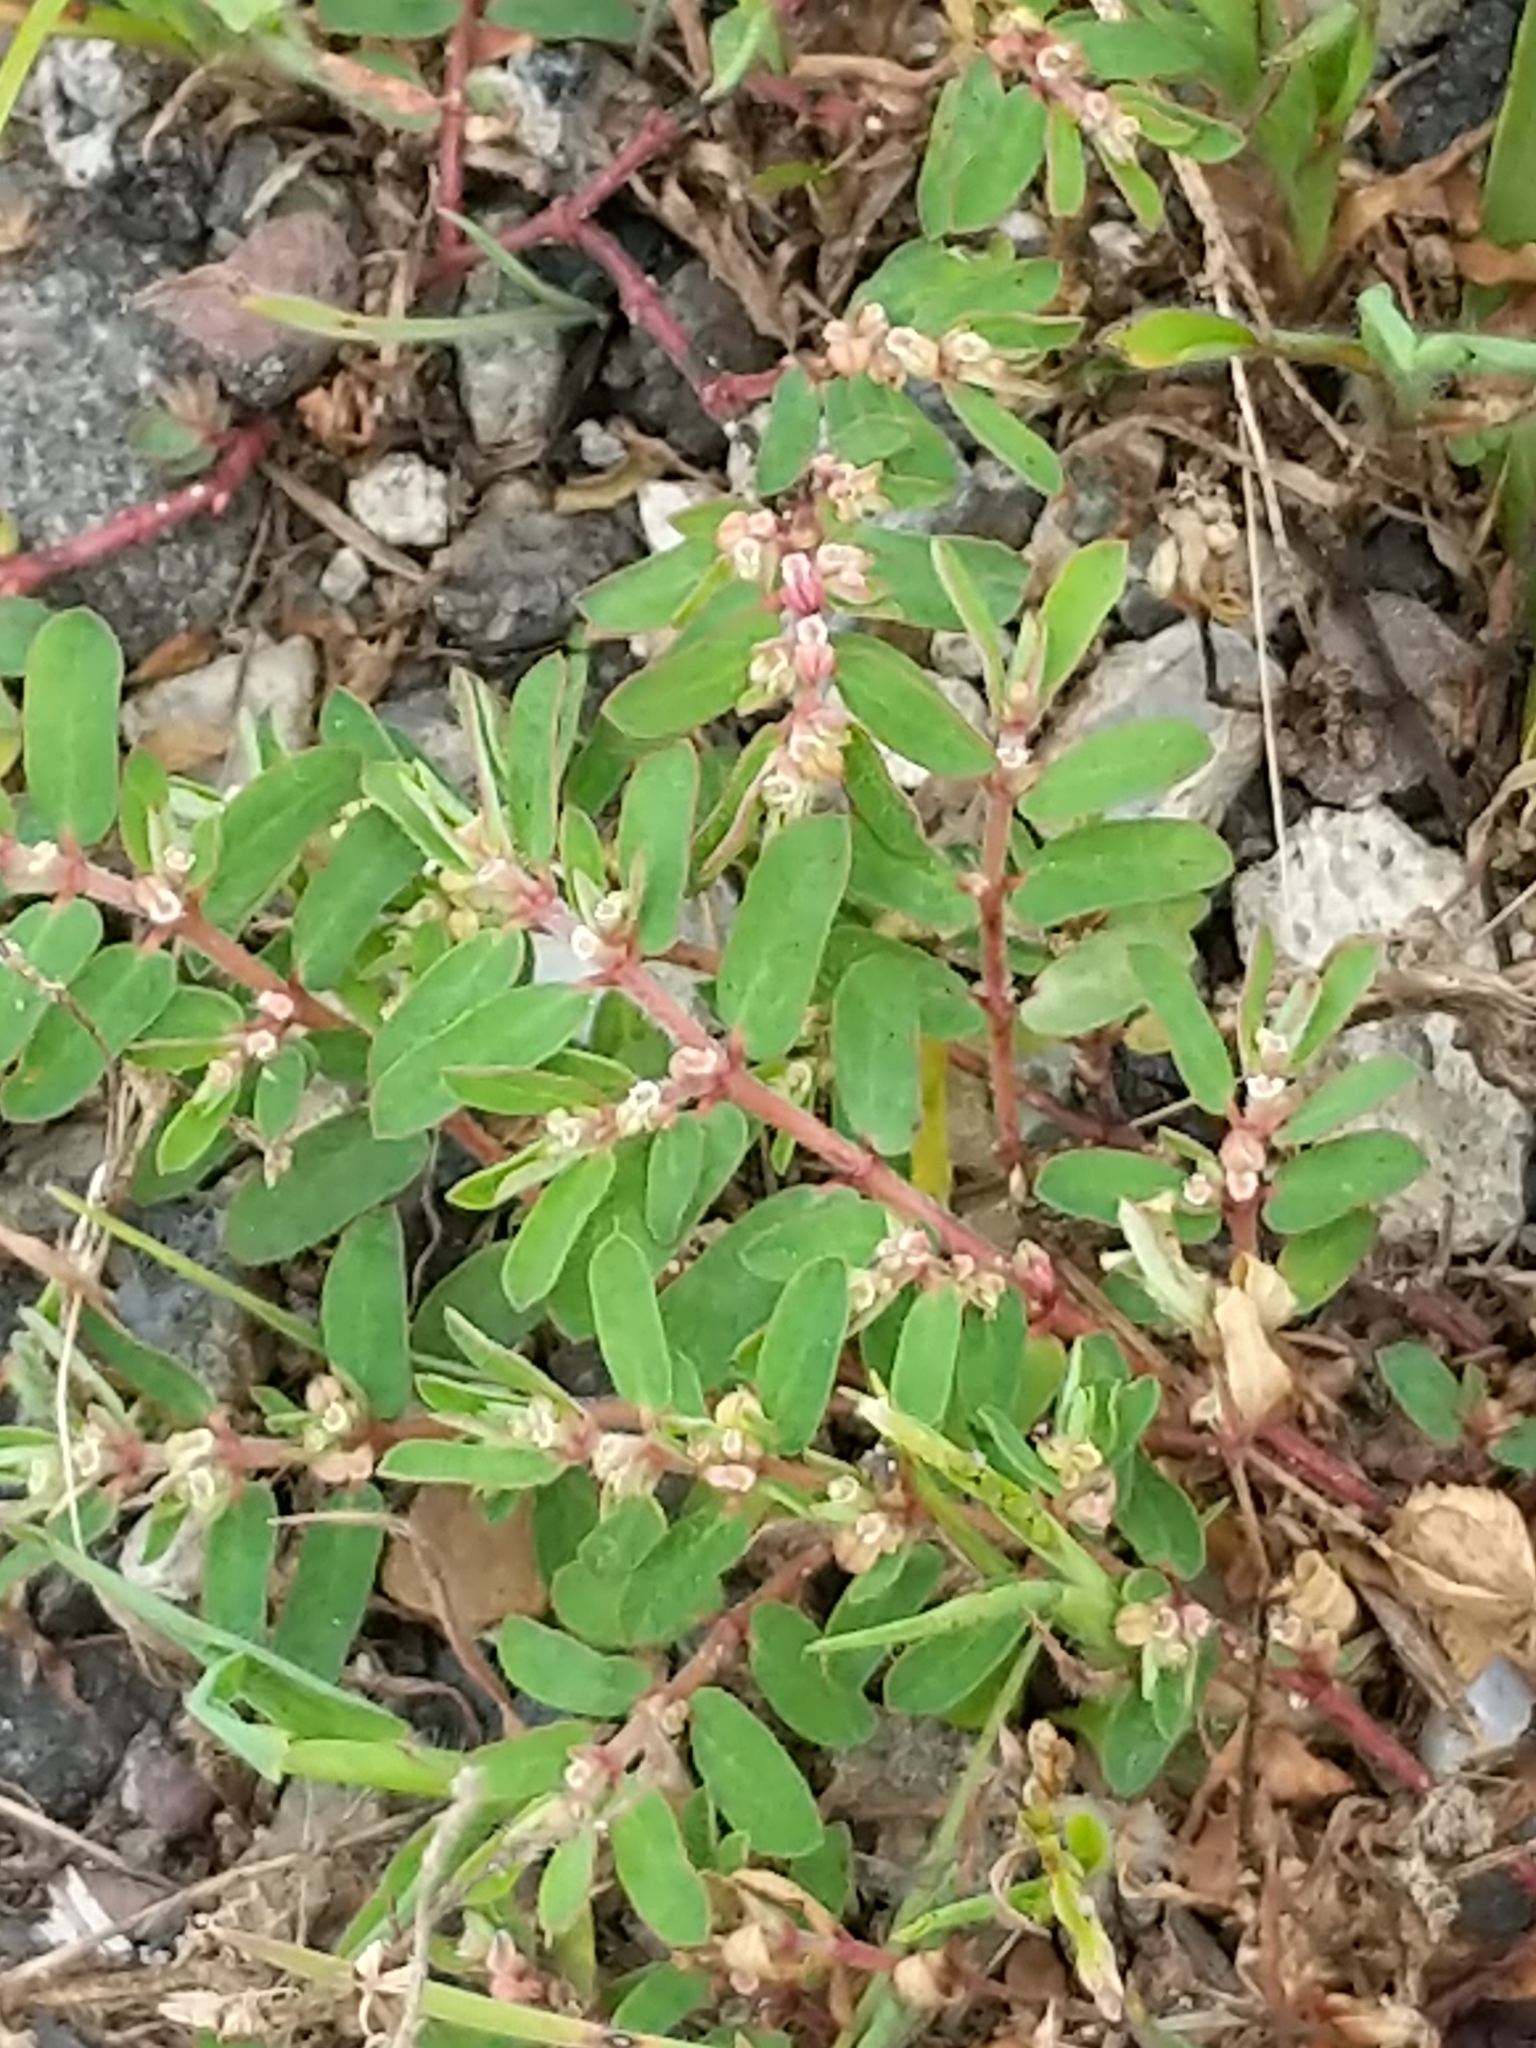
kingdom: Plantae
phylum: Tracheophyta
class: Magnoliopsida
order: Malpighiales
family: Euphorbiaceae
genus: Euphorbia
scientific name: Euphorbia maculata
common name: Spotted spurge
